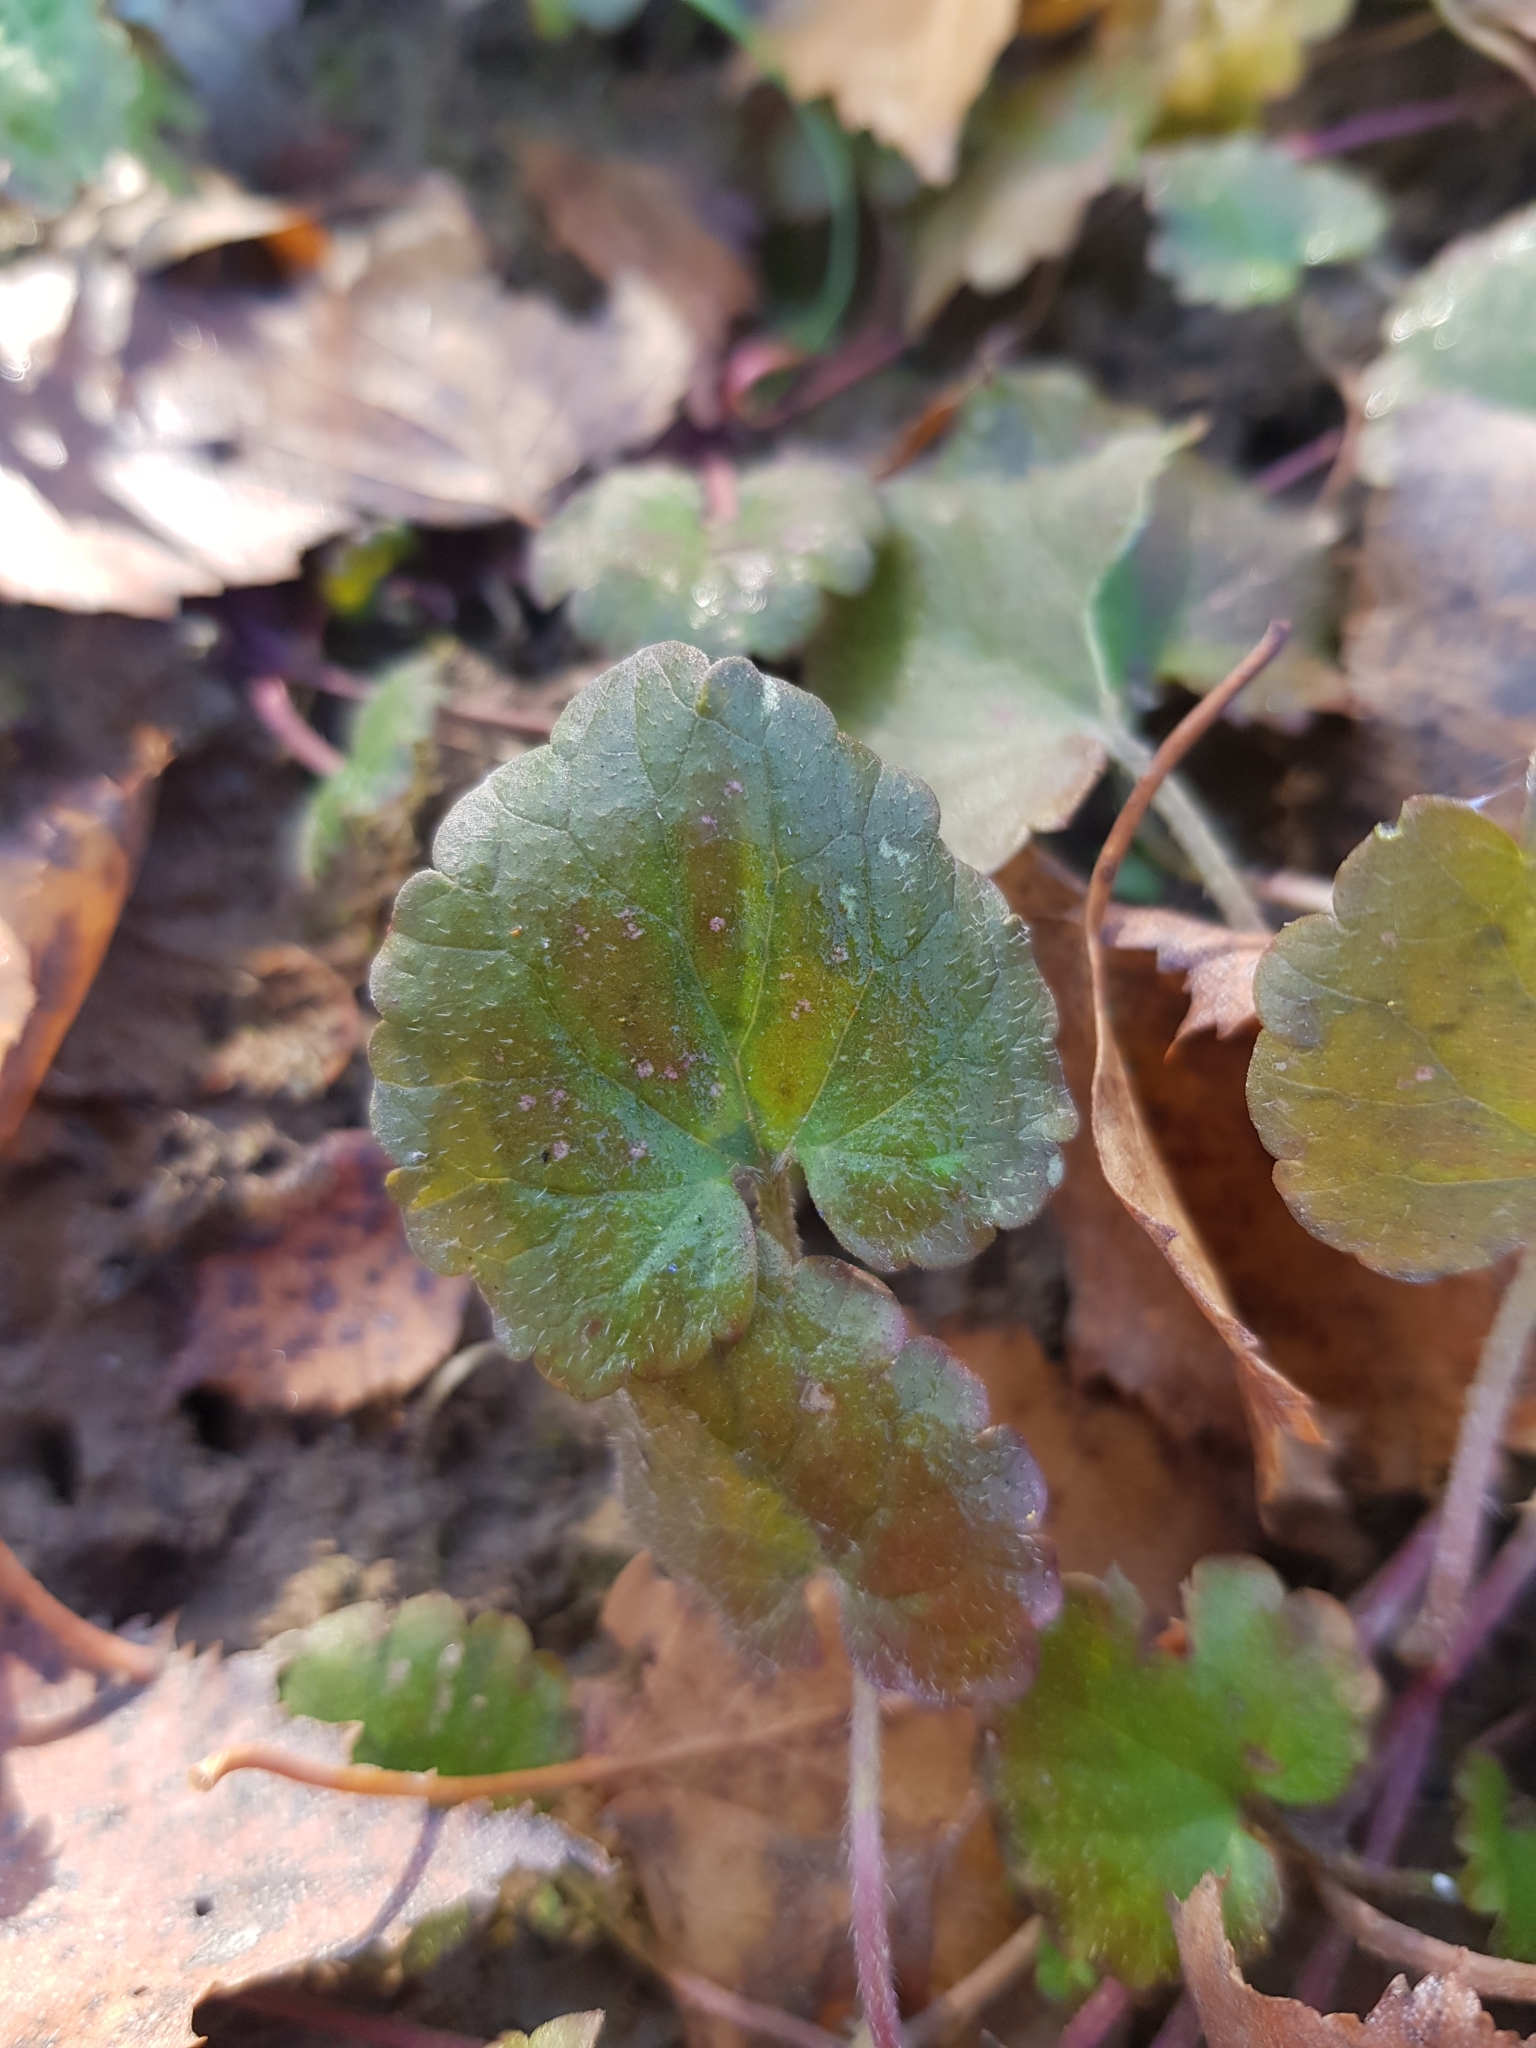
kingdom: Plantae
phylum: Tracheophyta
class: Magnoliopsida
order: Lamiales
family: Lamiaceae
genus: Glechoma
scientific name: Glechoma hederacea
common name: Ground ivy
